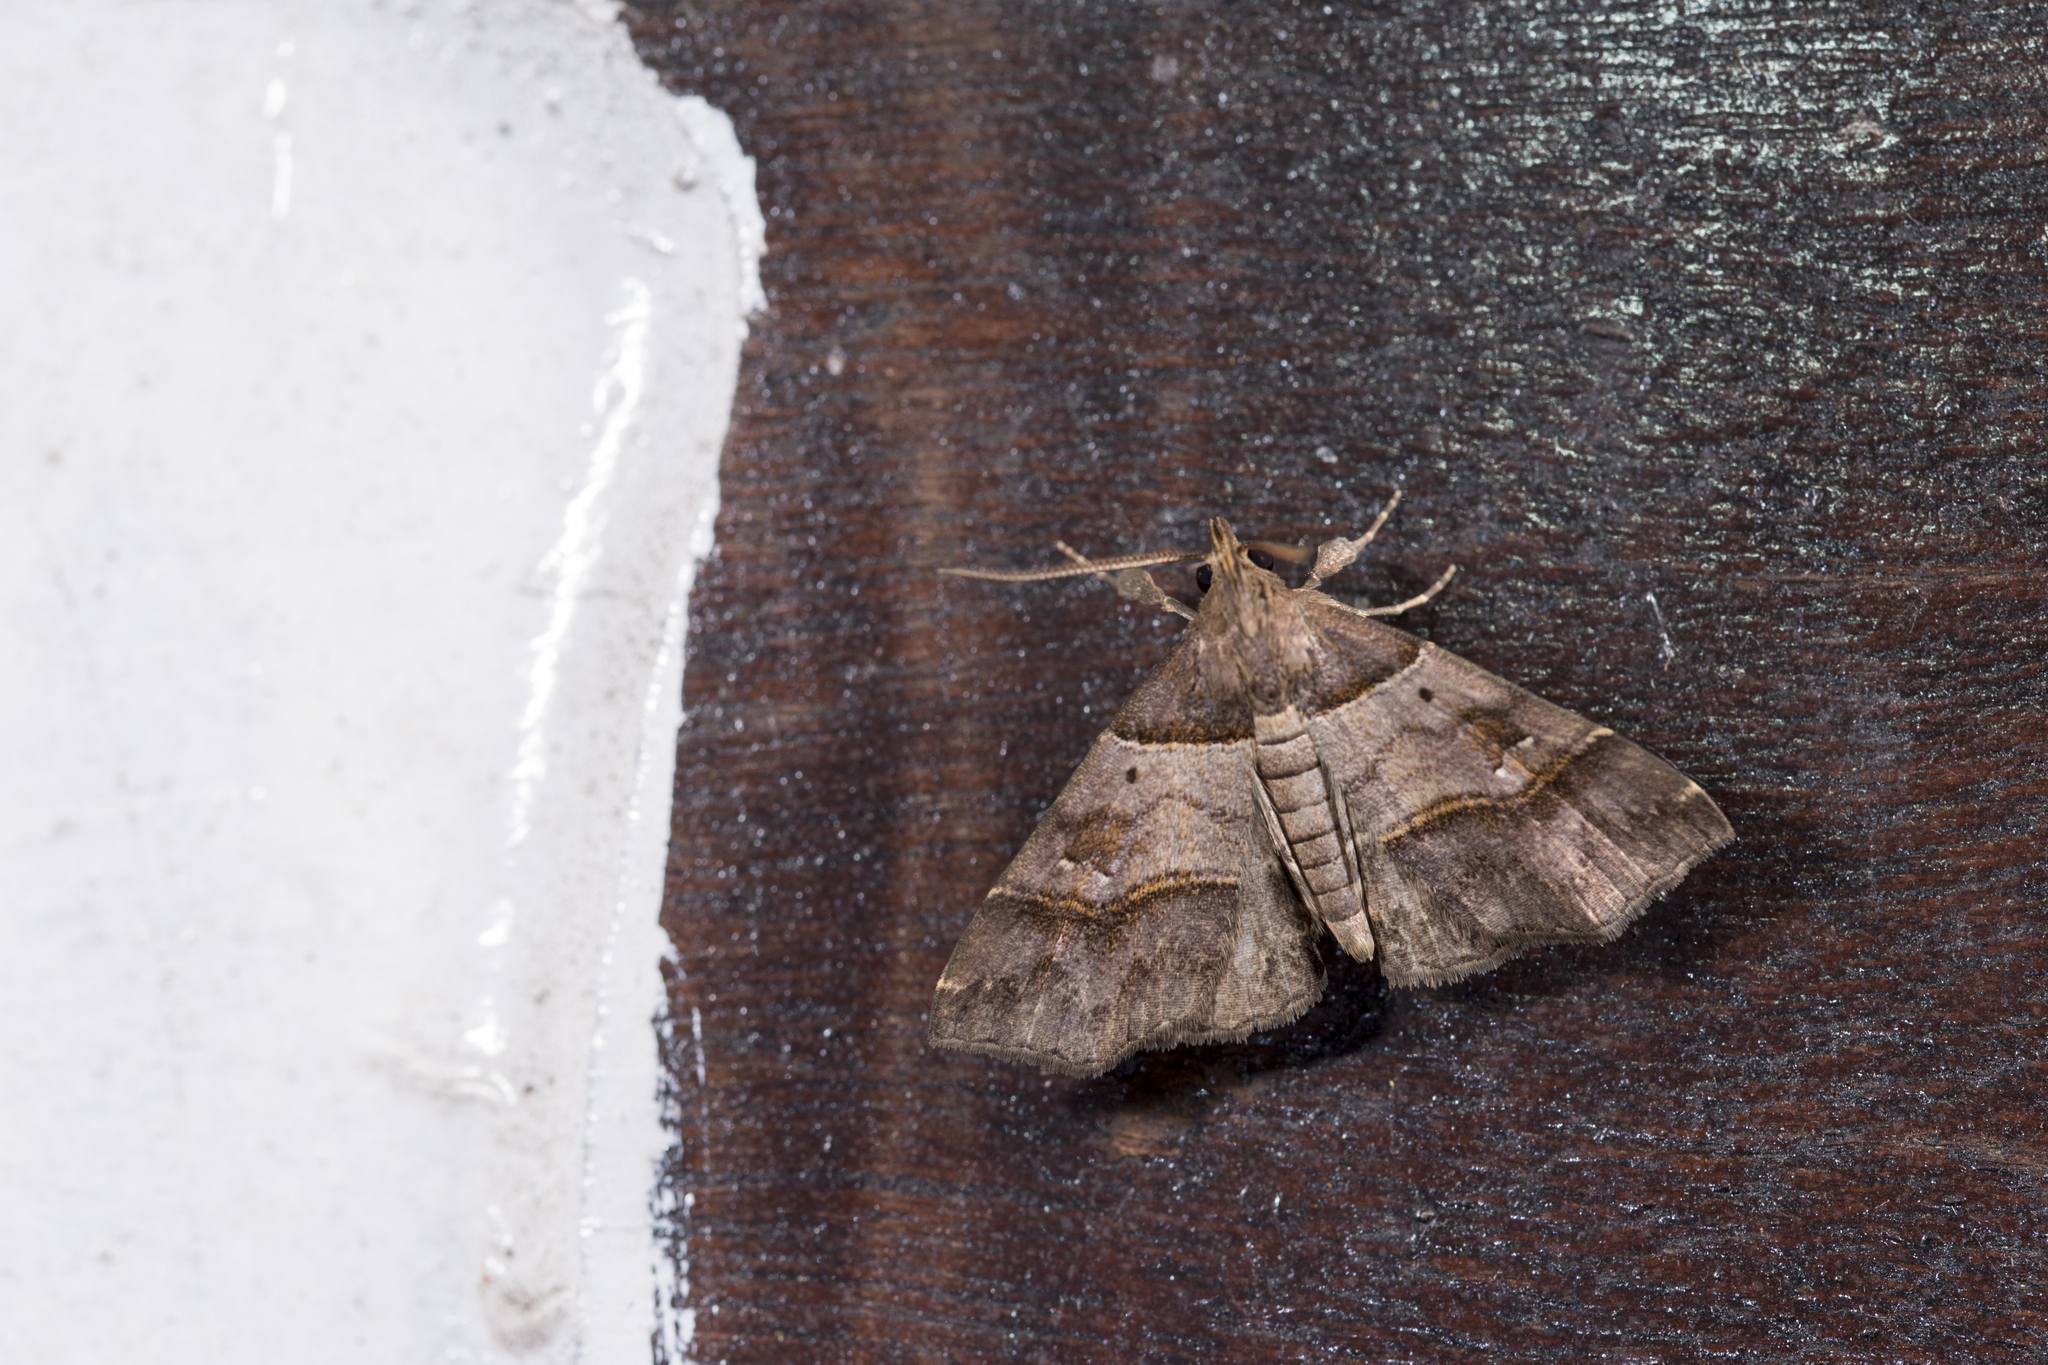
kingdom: Animalia
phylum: Arthropoda
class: Insecta
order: Lepidoptera
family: Erebidae
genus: Bertula
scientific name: Bertula kosemponica
